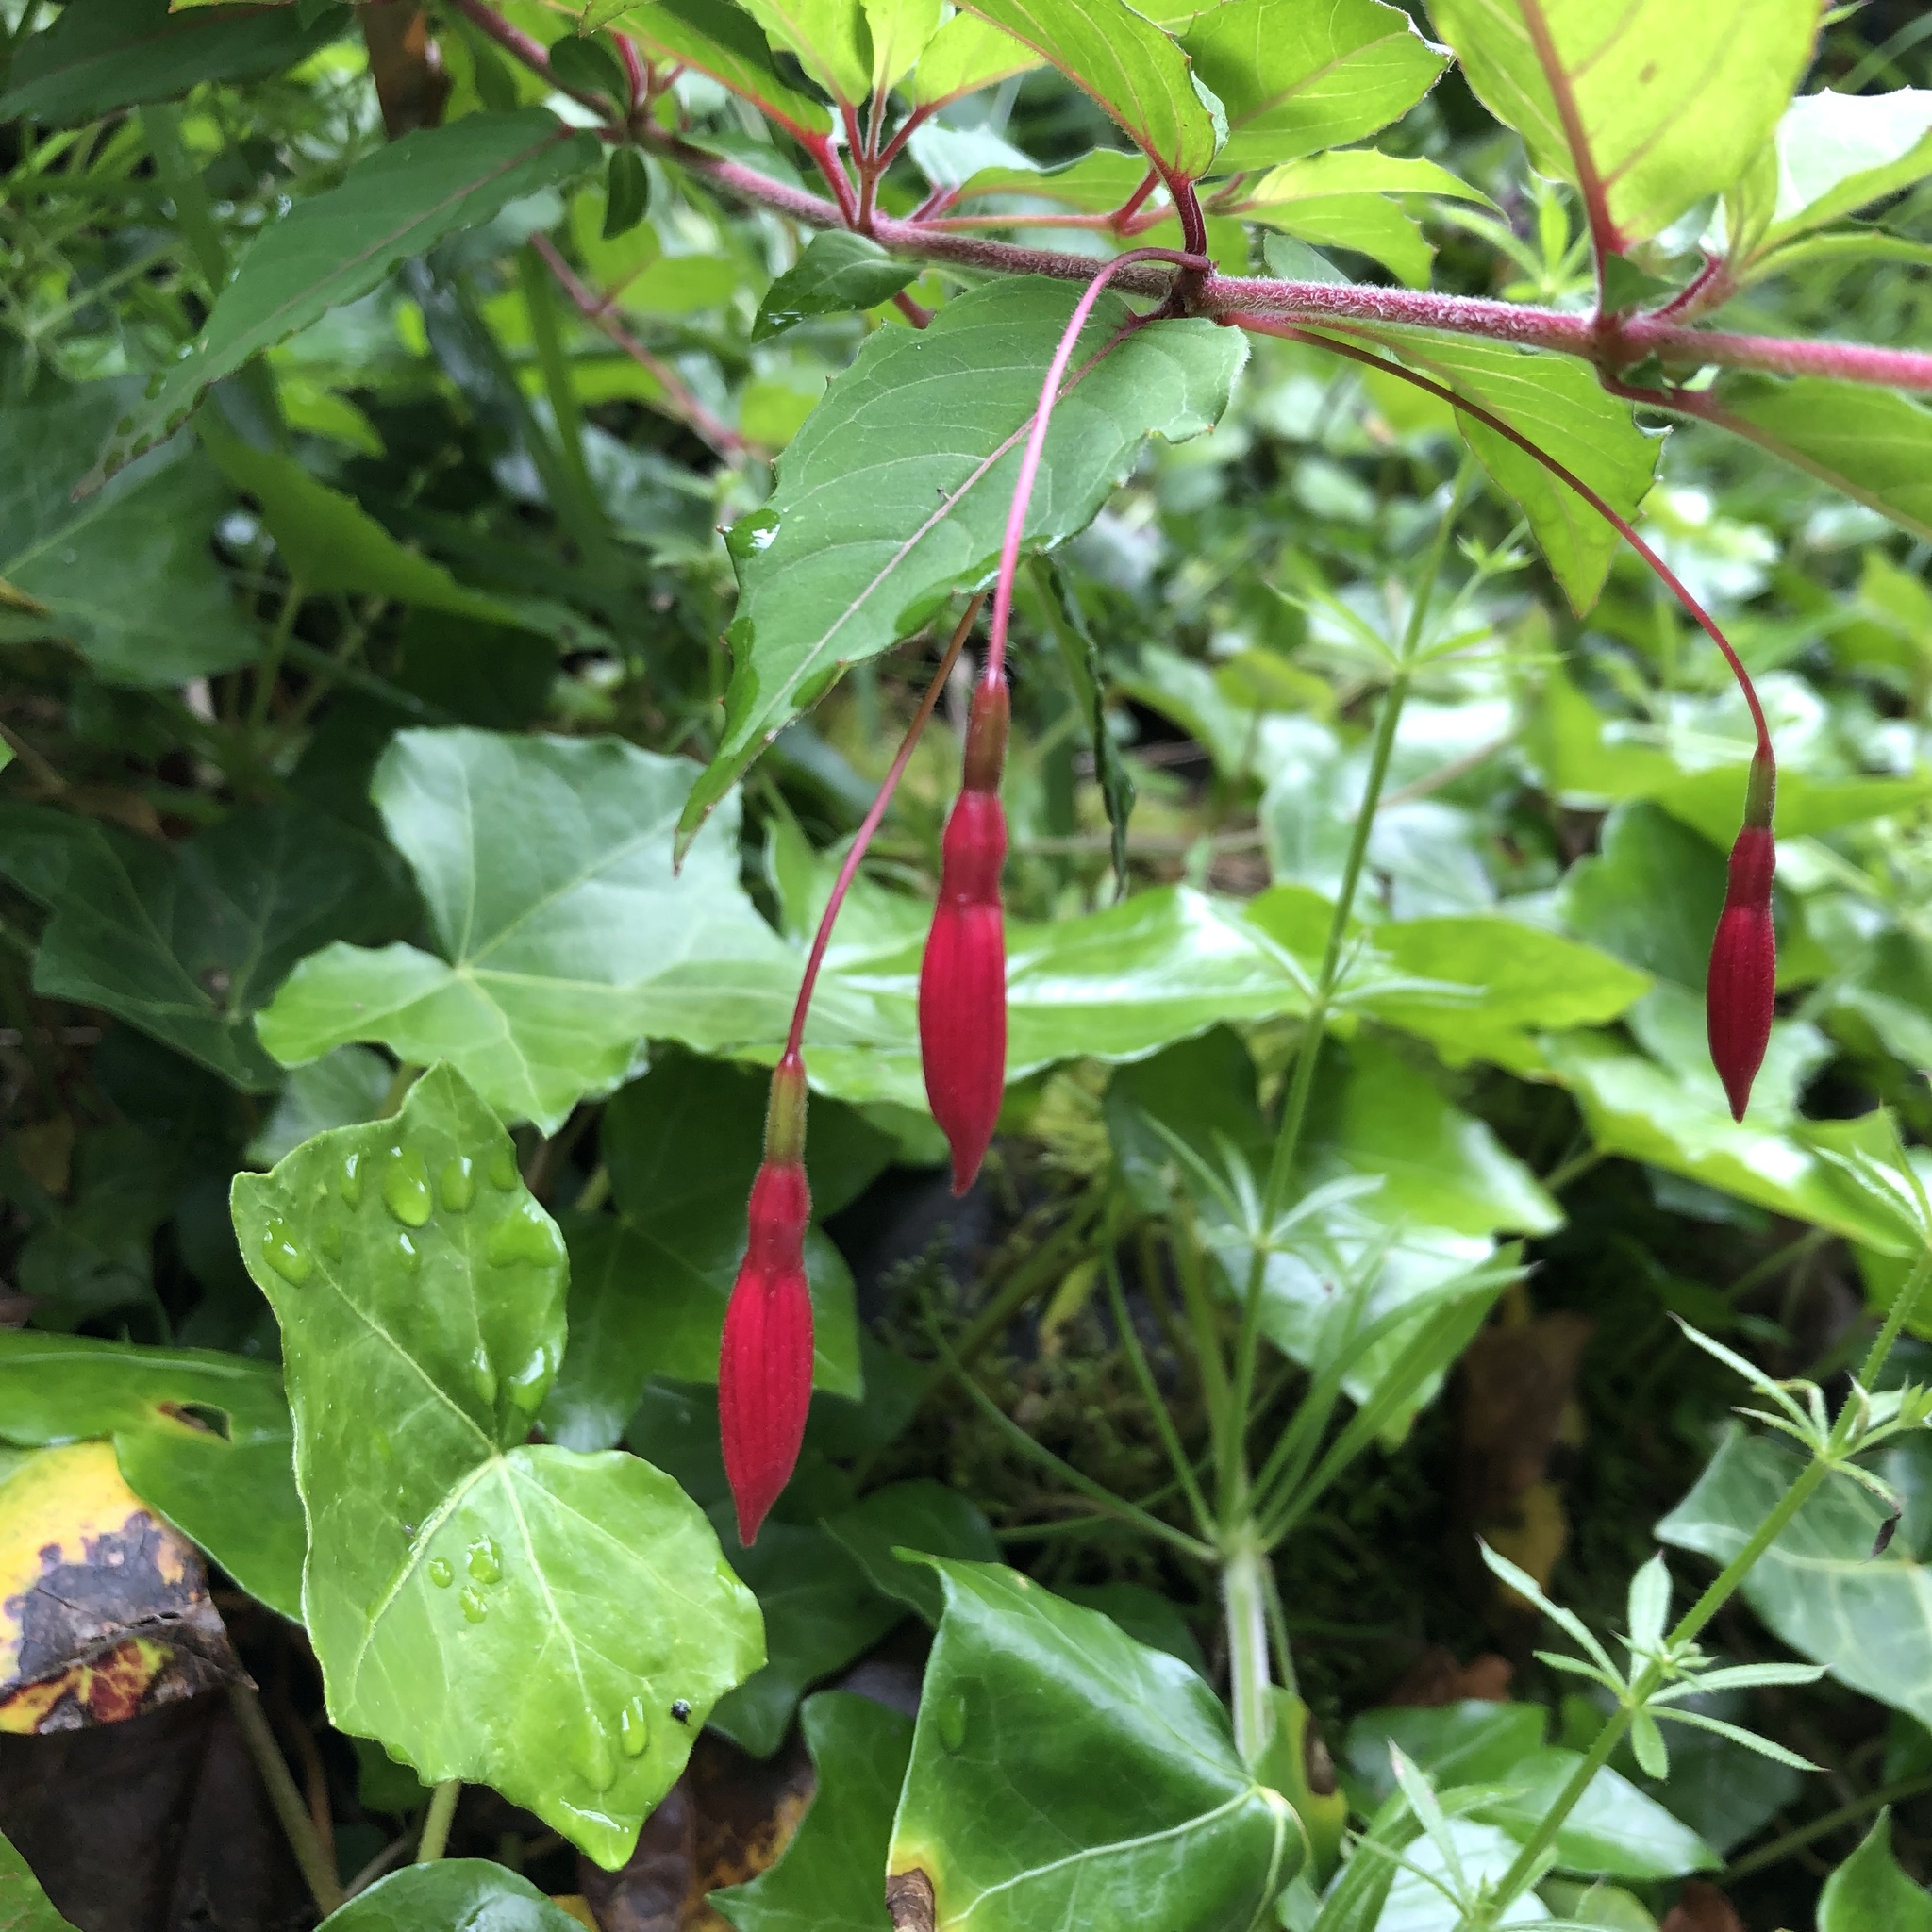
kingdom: Plantae
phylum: Tracheophyta
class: Magnoliopsida
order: Myrtales
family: Onagraceae
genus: Fuchsia
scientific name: Fuchsia magellanica
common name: Hardy fuchsia
